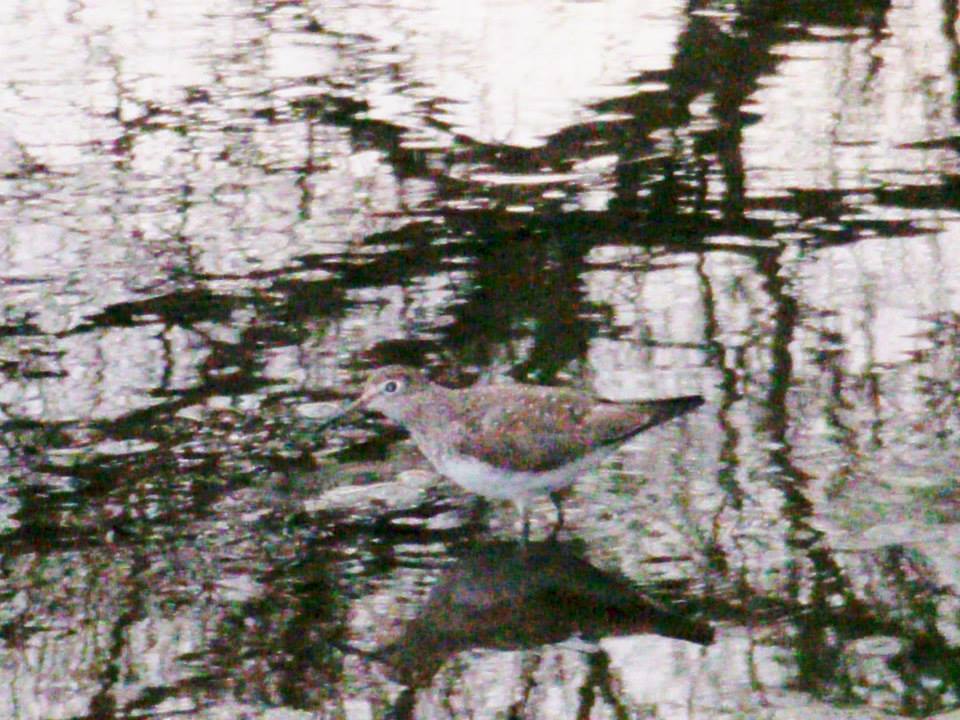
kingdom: Animalia
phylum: Chordata
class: Aves
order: Charadriiformes
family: Scolopacidae
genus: Tringa
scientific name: Tringa solitaria
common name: Solitary sandpiper
